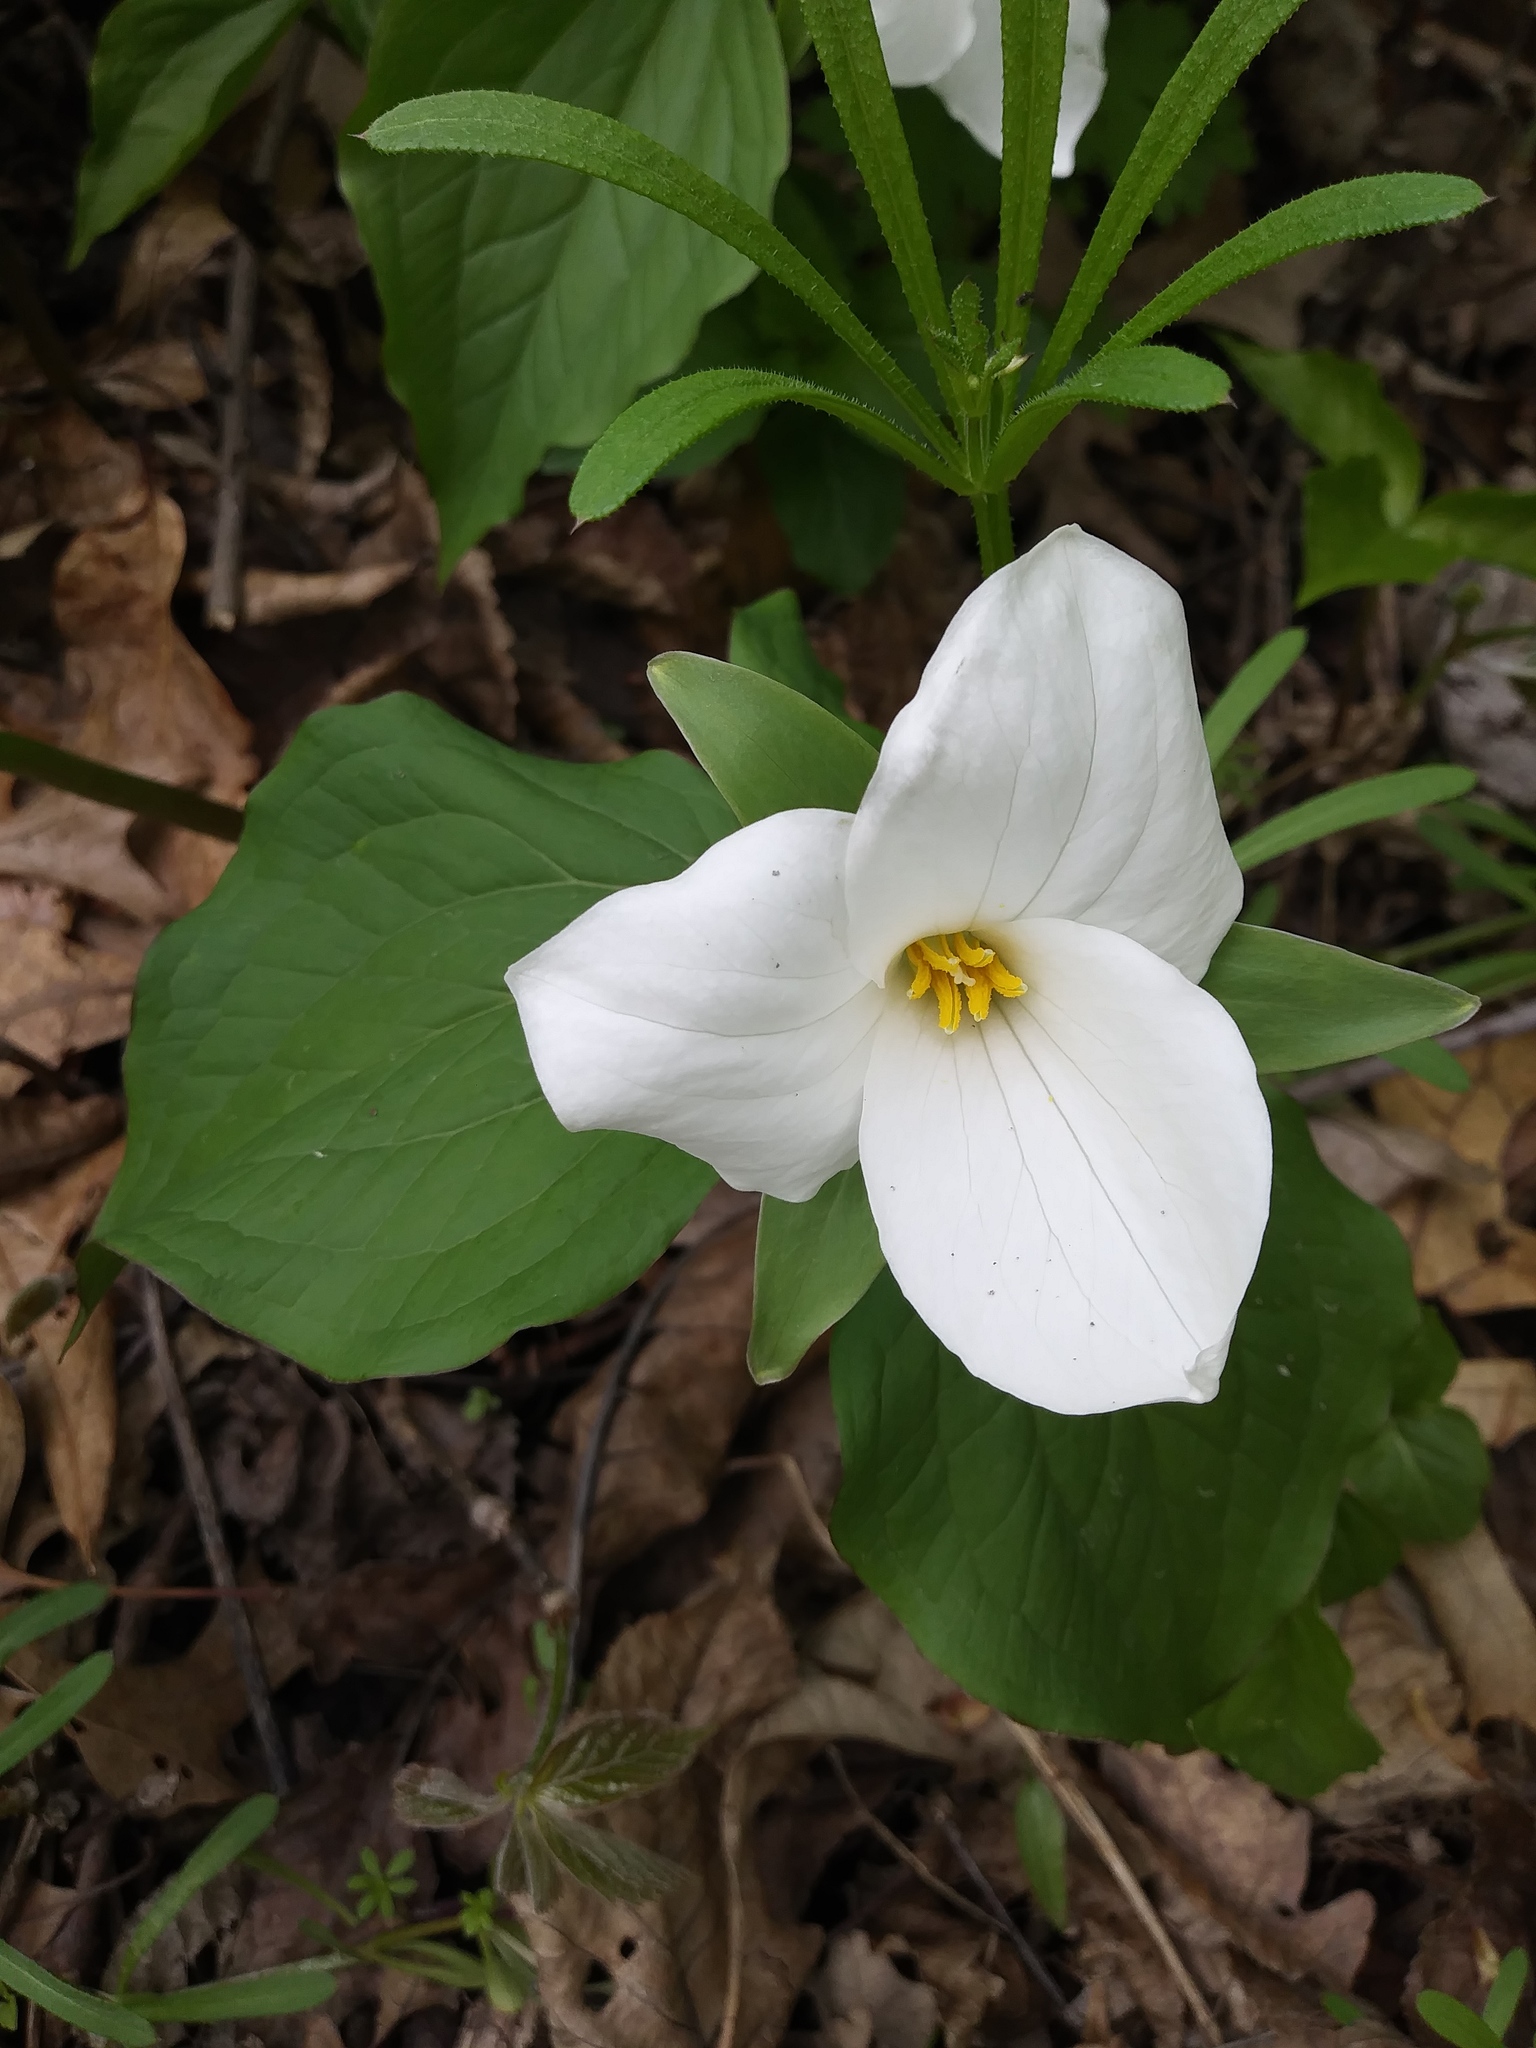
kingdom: Plantae
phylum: Tracheophyta
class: Liliopsida
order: Liliales
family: Melanthiaceae
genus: Trillium
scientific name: Trillium grandiflorum
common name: Great white trillium
